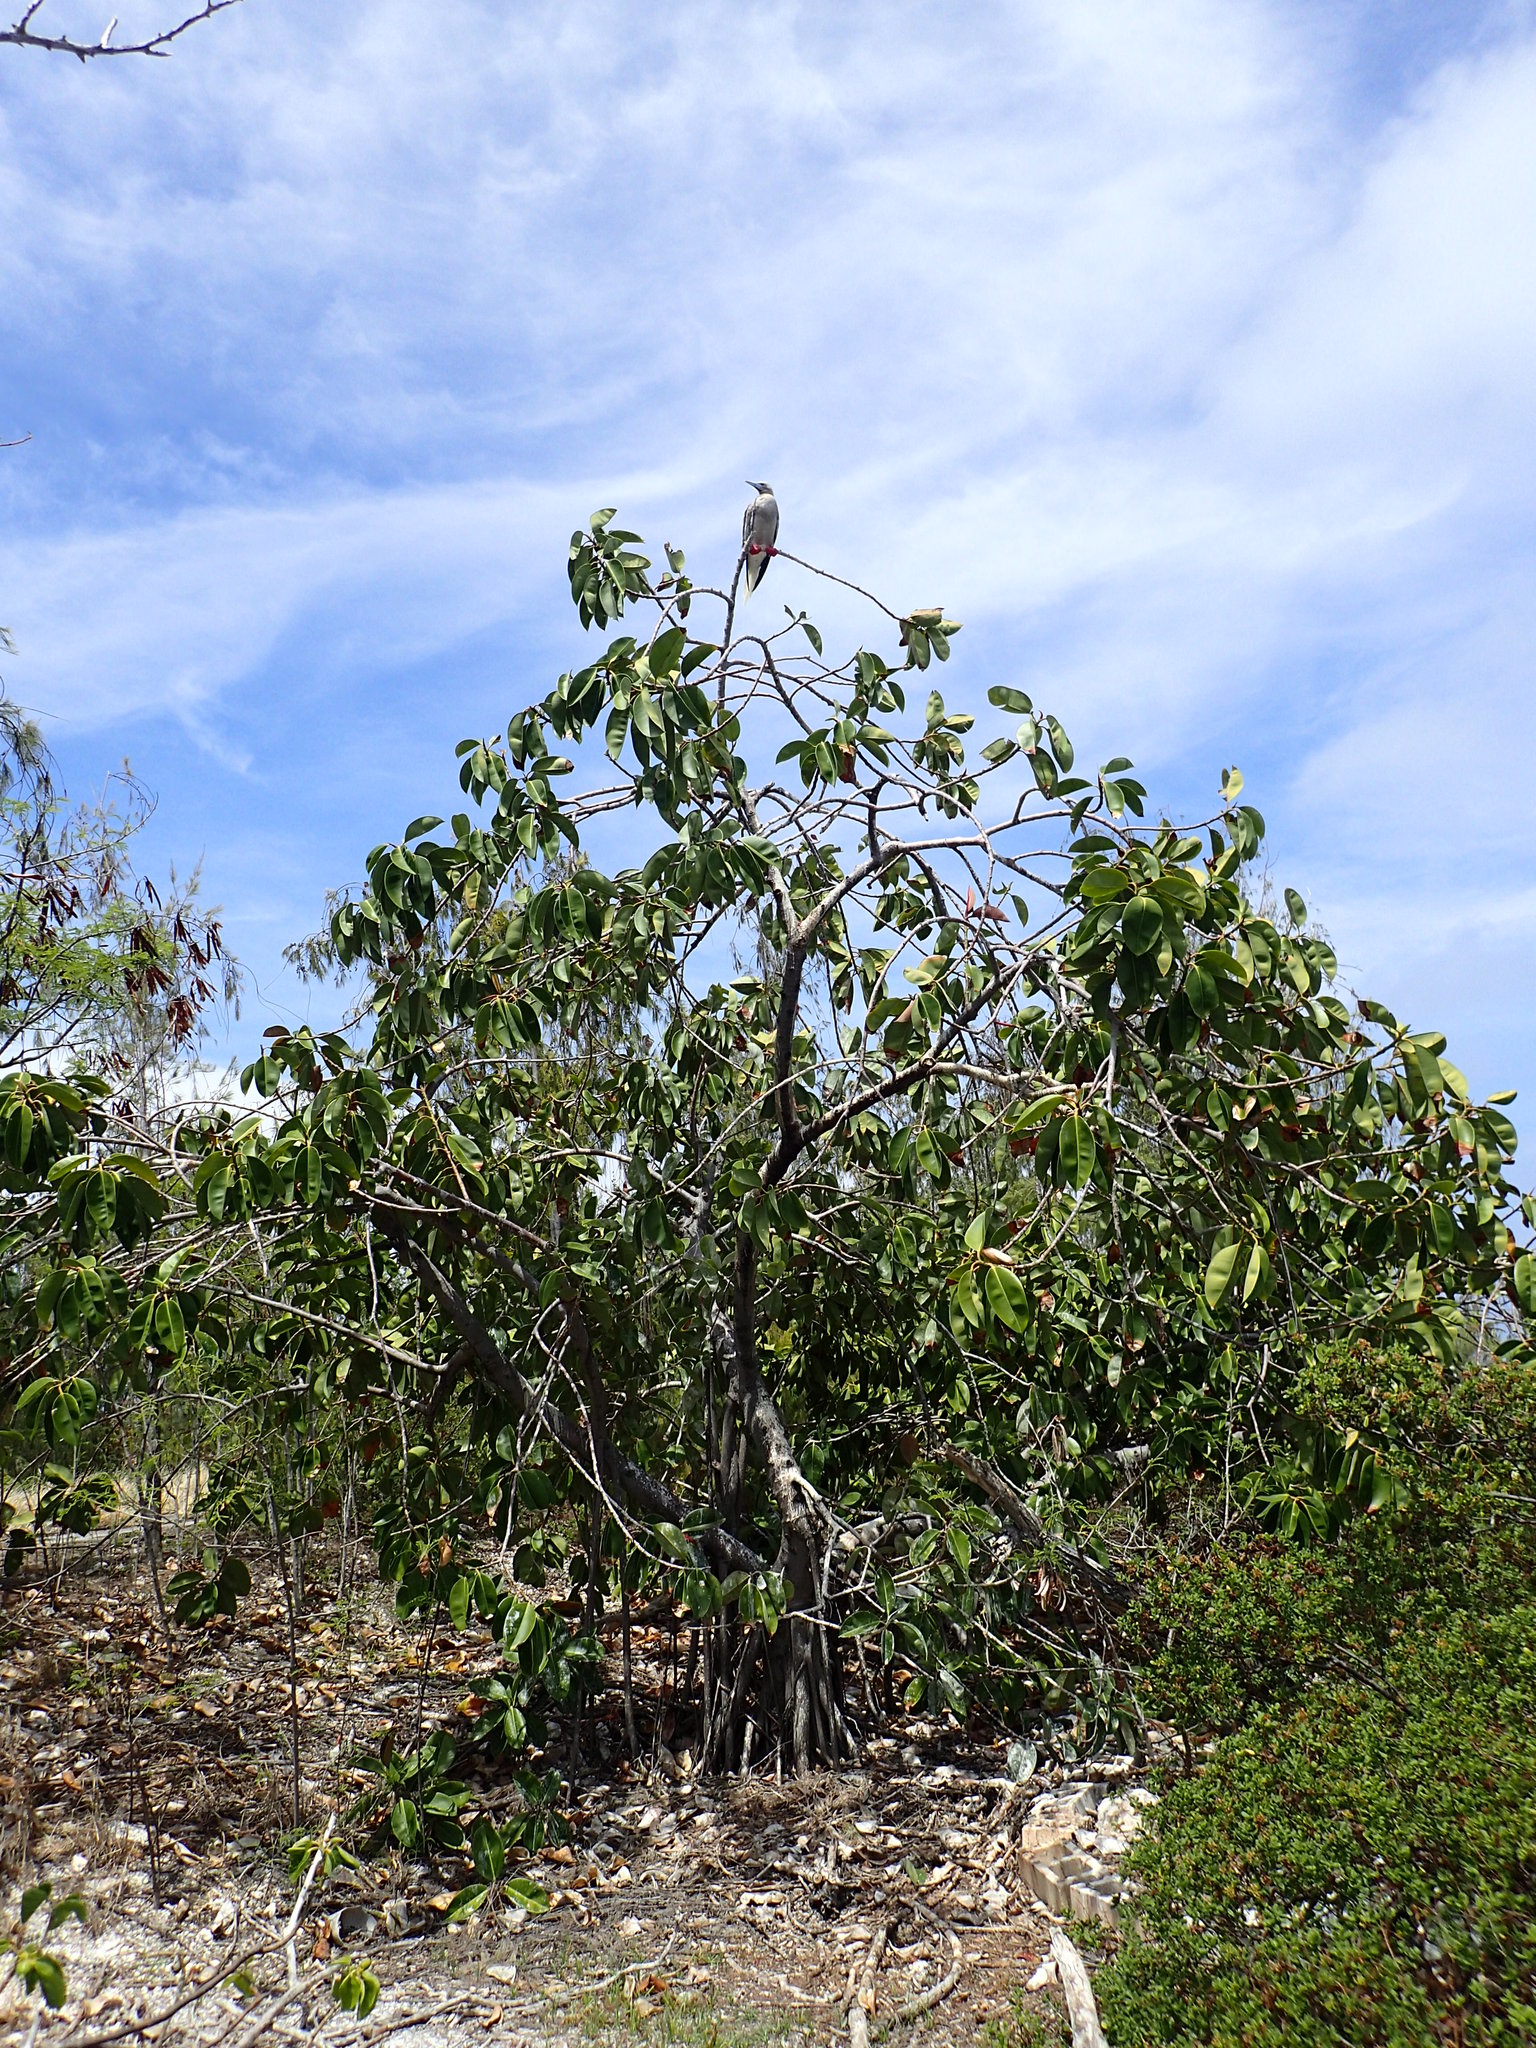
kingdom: Plantae
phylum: Tracheophyta
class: Magnoliopsida
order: Rosales
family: Moraceae
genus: Ficus
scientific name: Ficus elastica
